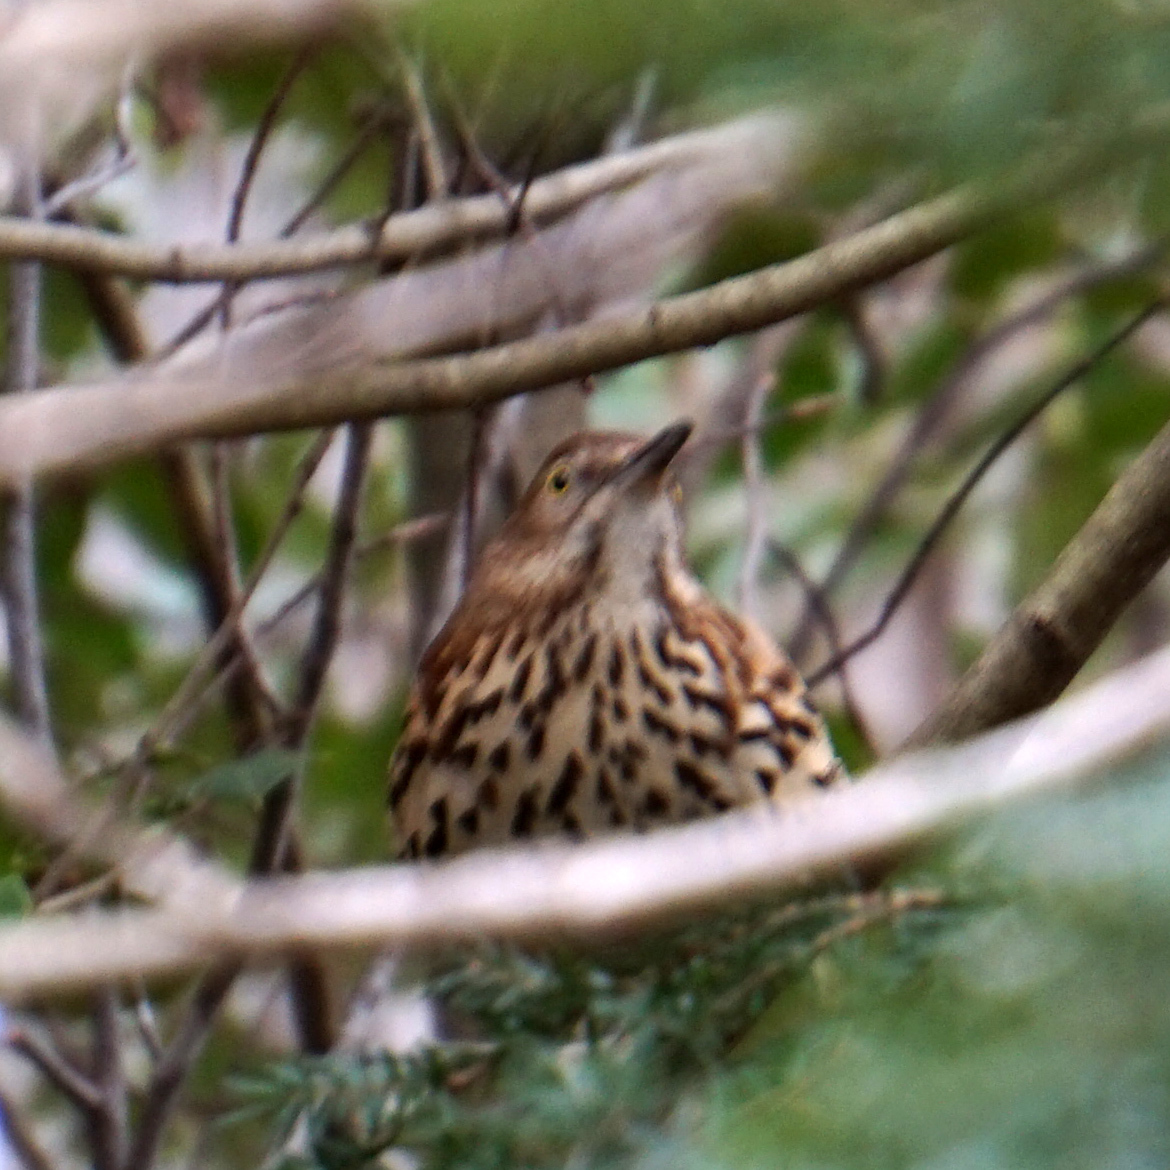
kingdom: Animalia
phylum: Chordata
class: Aves
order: Passeriformes
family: Mimidae
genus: Toxostoma
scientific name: Toxostoma rufum
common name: Brown thrasher
